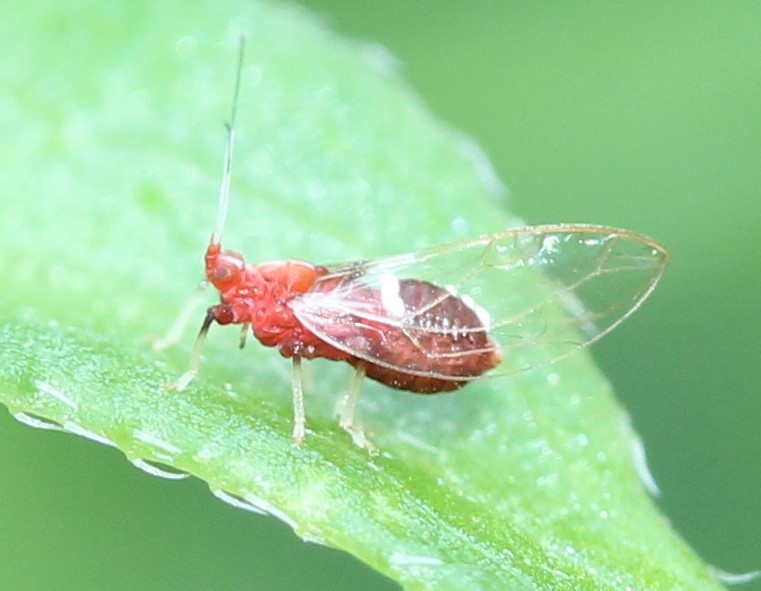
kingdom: Animalia
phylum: Arthropoda
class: Insecta
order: Hemiptera
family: Triozidae
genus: Bactericera
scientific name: Bactericera antennata
